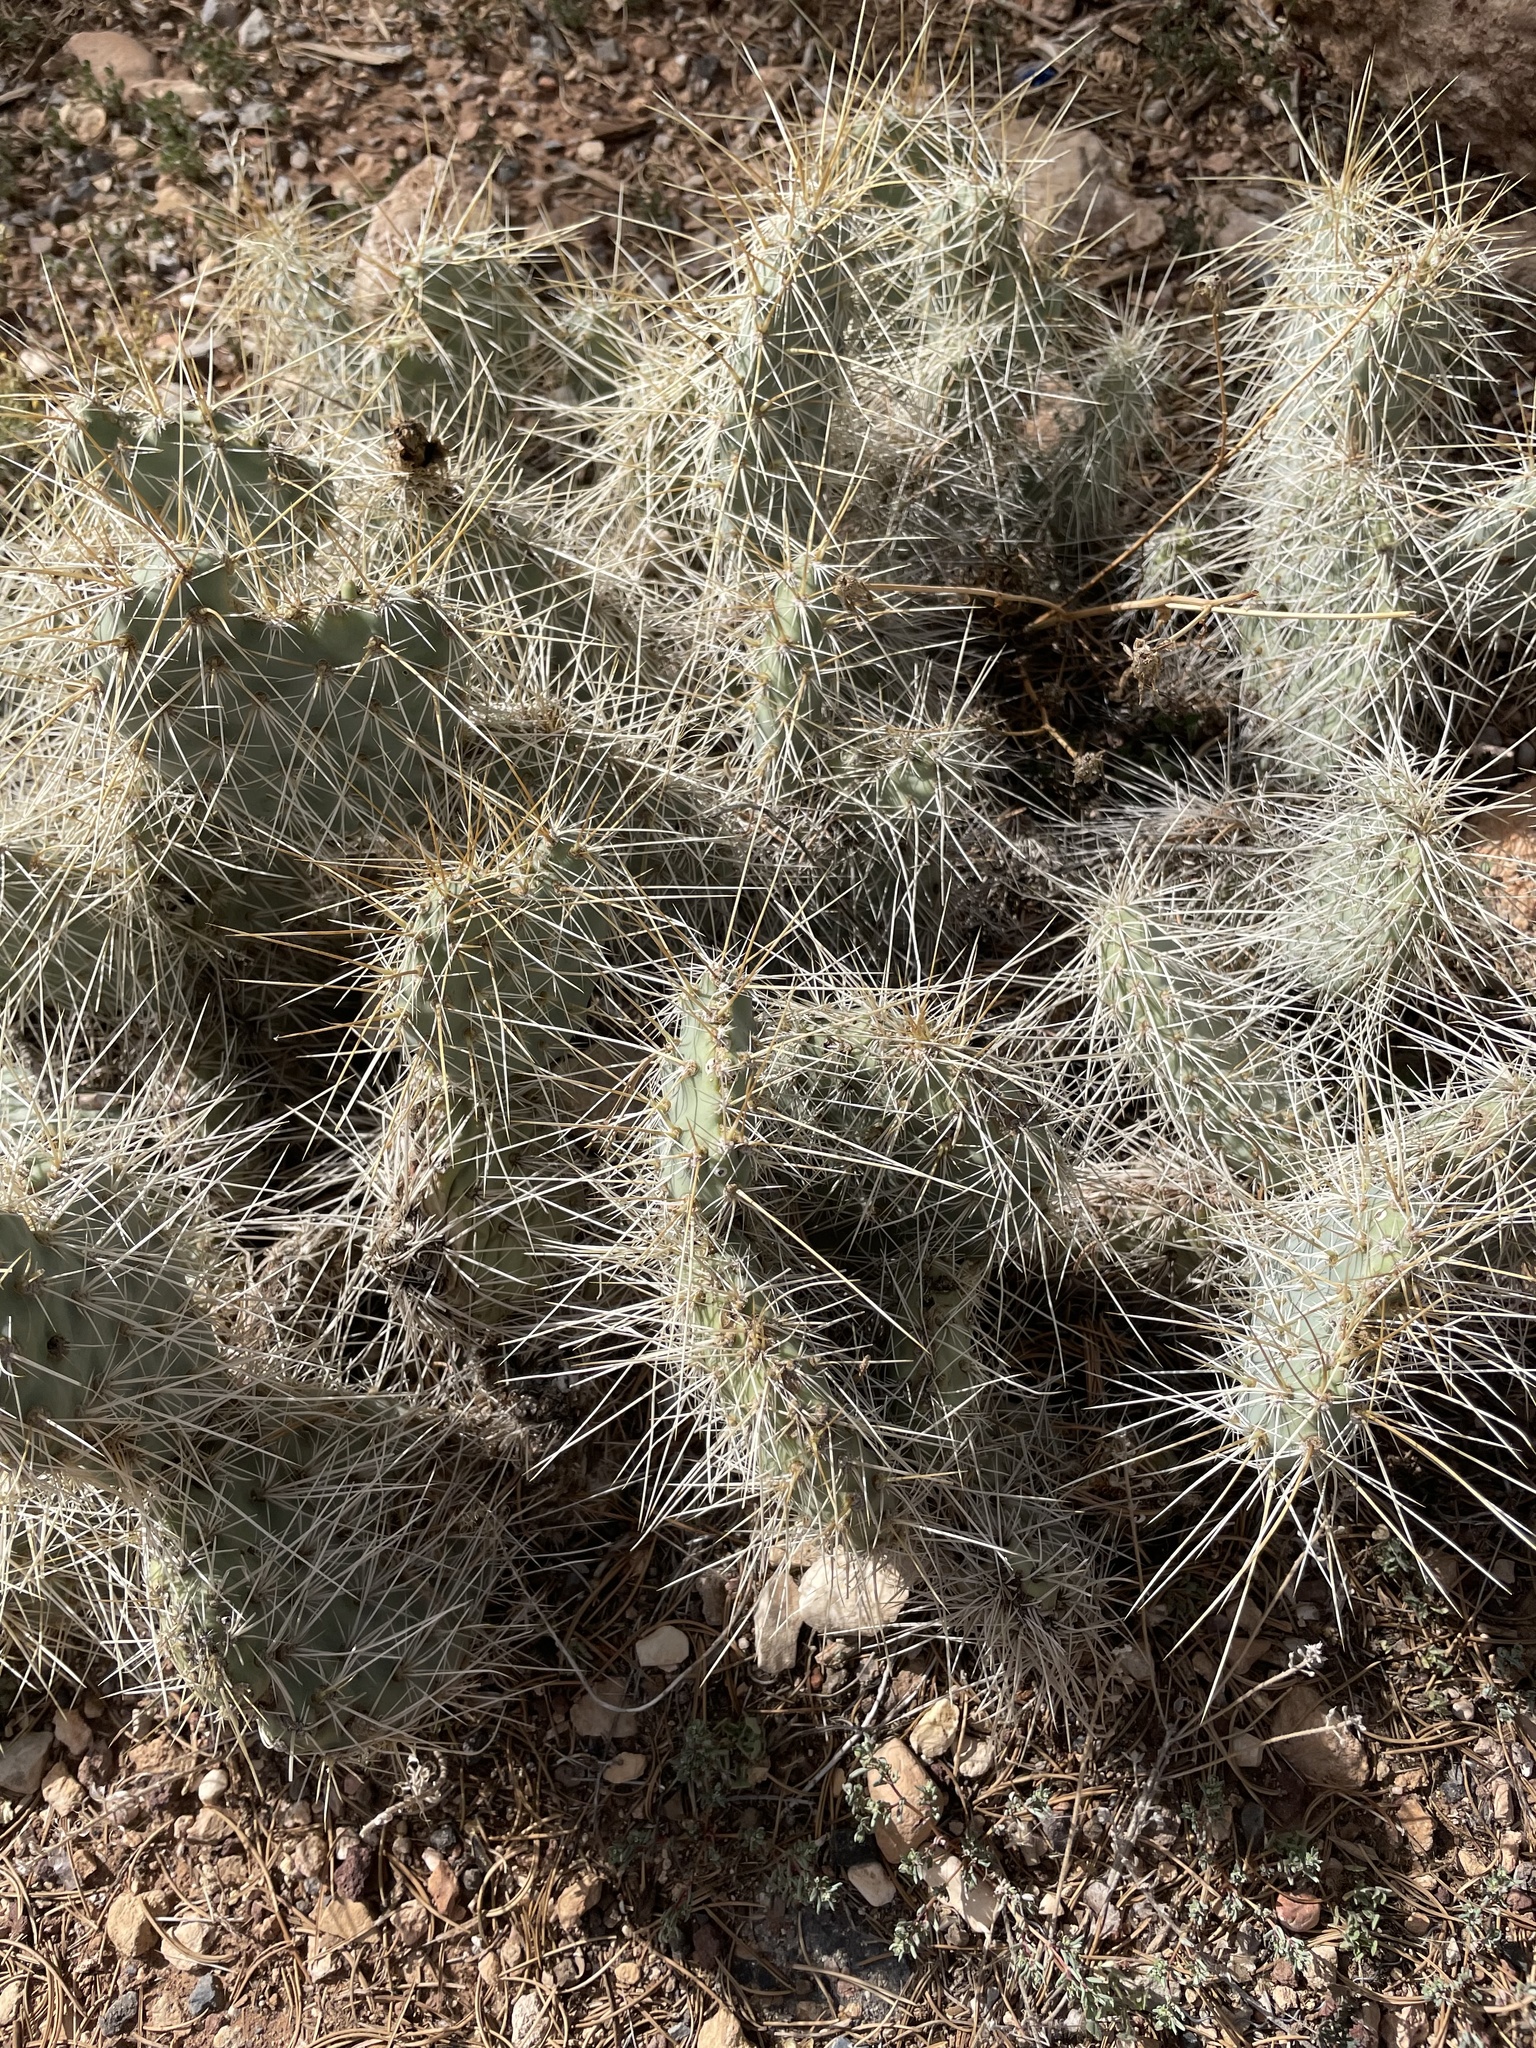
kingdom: Plantae
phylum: Tracheophyta
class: Magnoliopsida
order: Caryophyllales
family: Cactaceae
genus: Opuntia
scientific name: Opuntia polyacantha
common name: Plains prickly-pear
